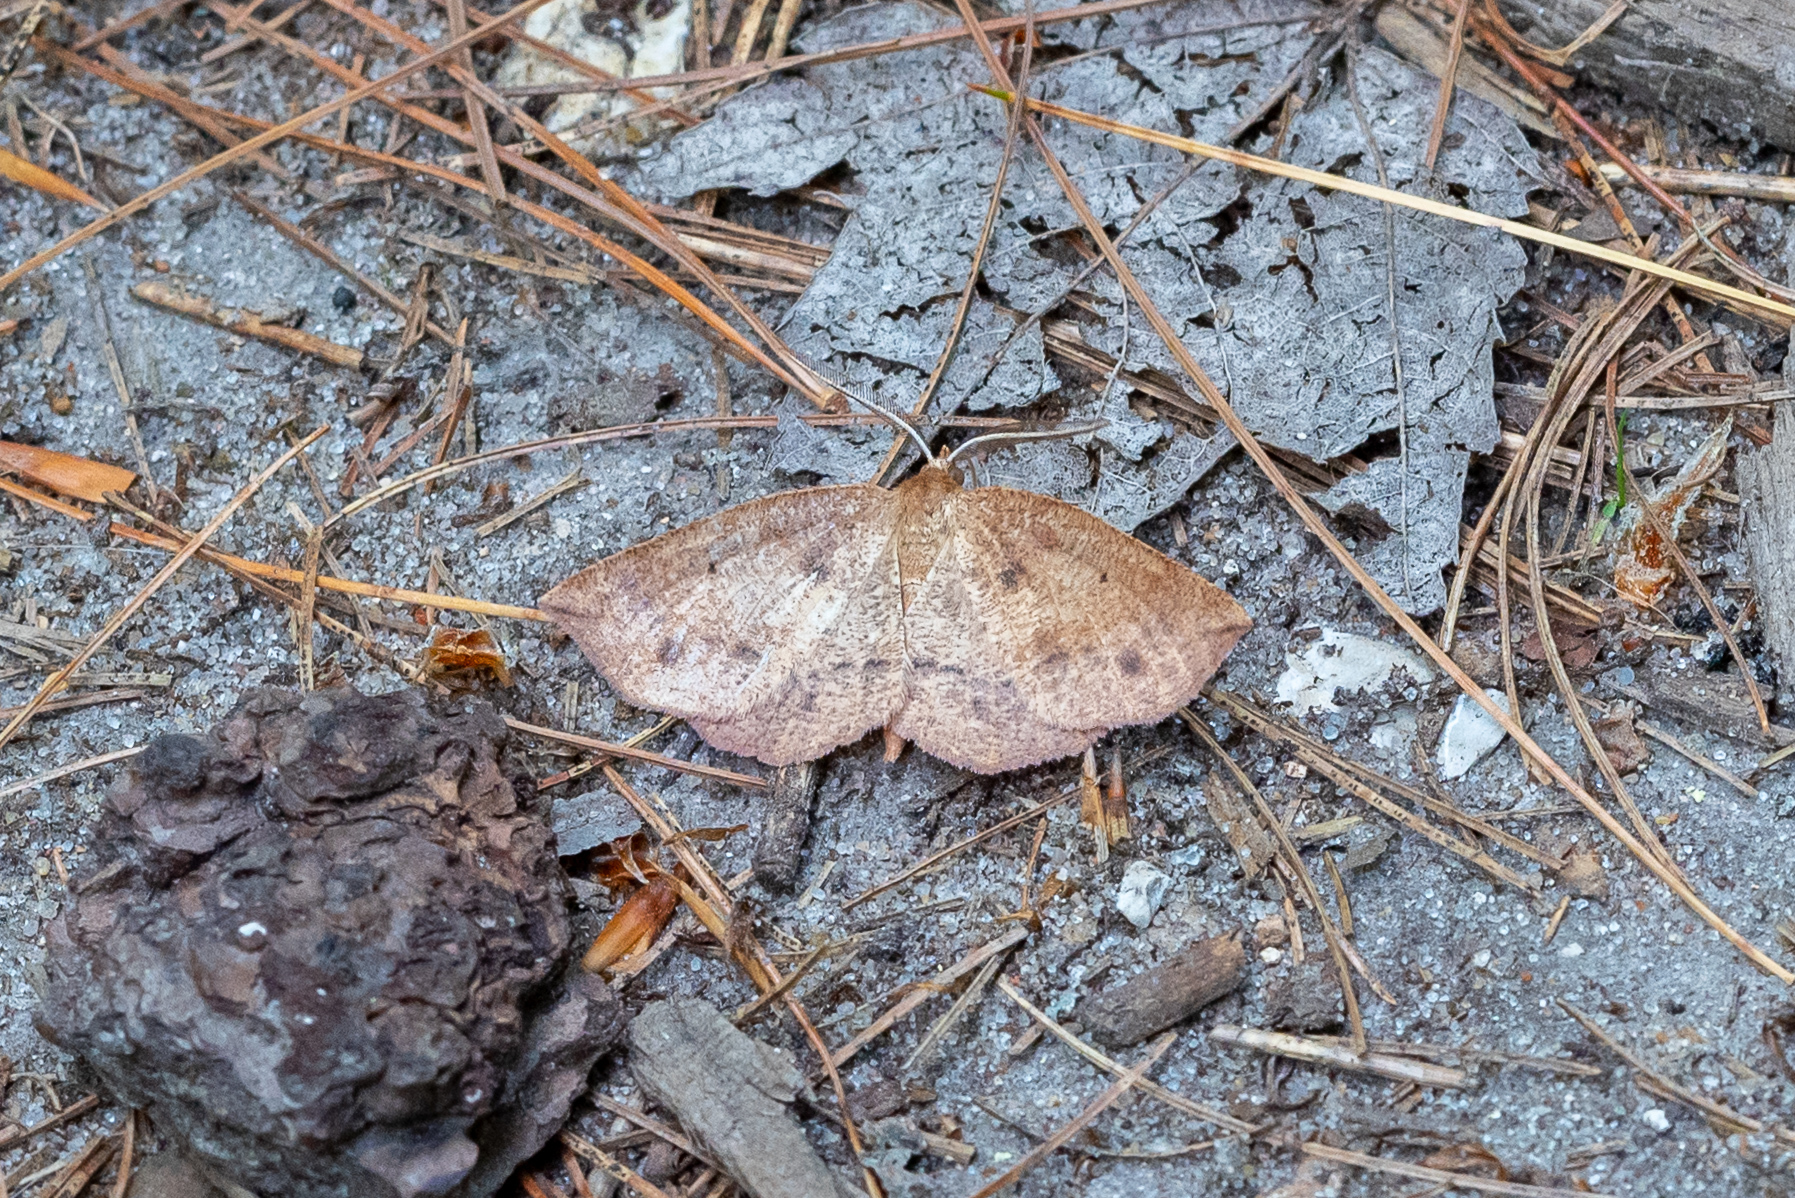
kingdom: Animalia
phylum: Arthropoda
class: Insecta
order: Lepidoptera
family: Geometridae
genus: Metarranthis
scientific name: Metarranthis duaria
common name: Ruddy metarranthis moth
